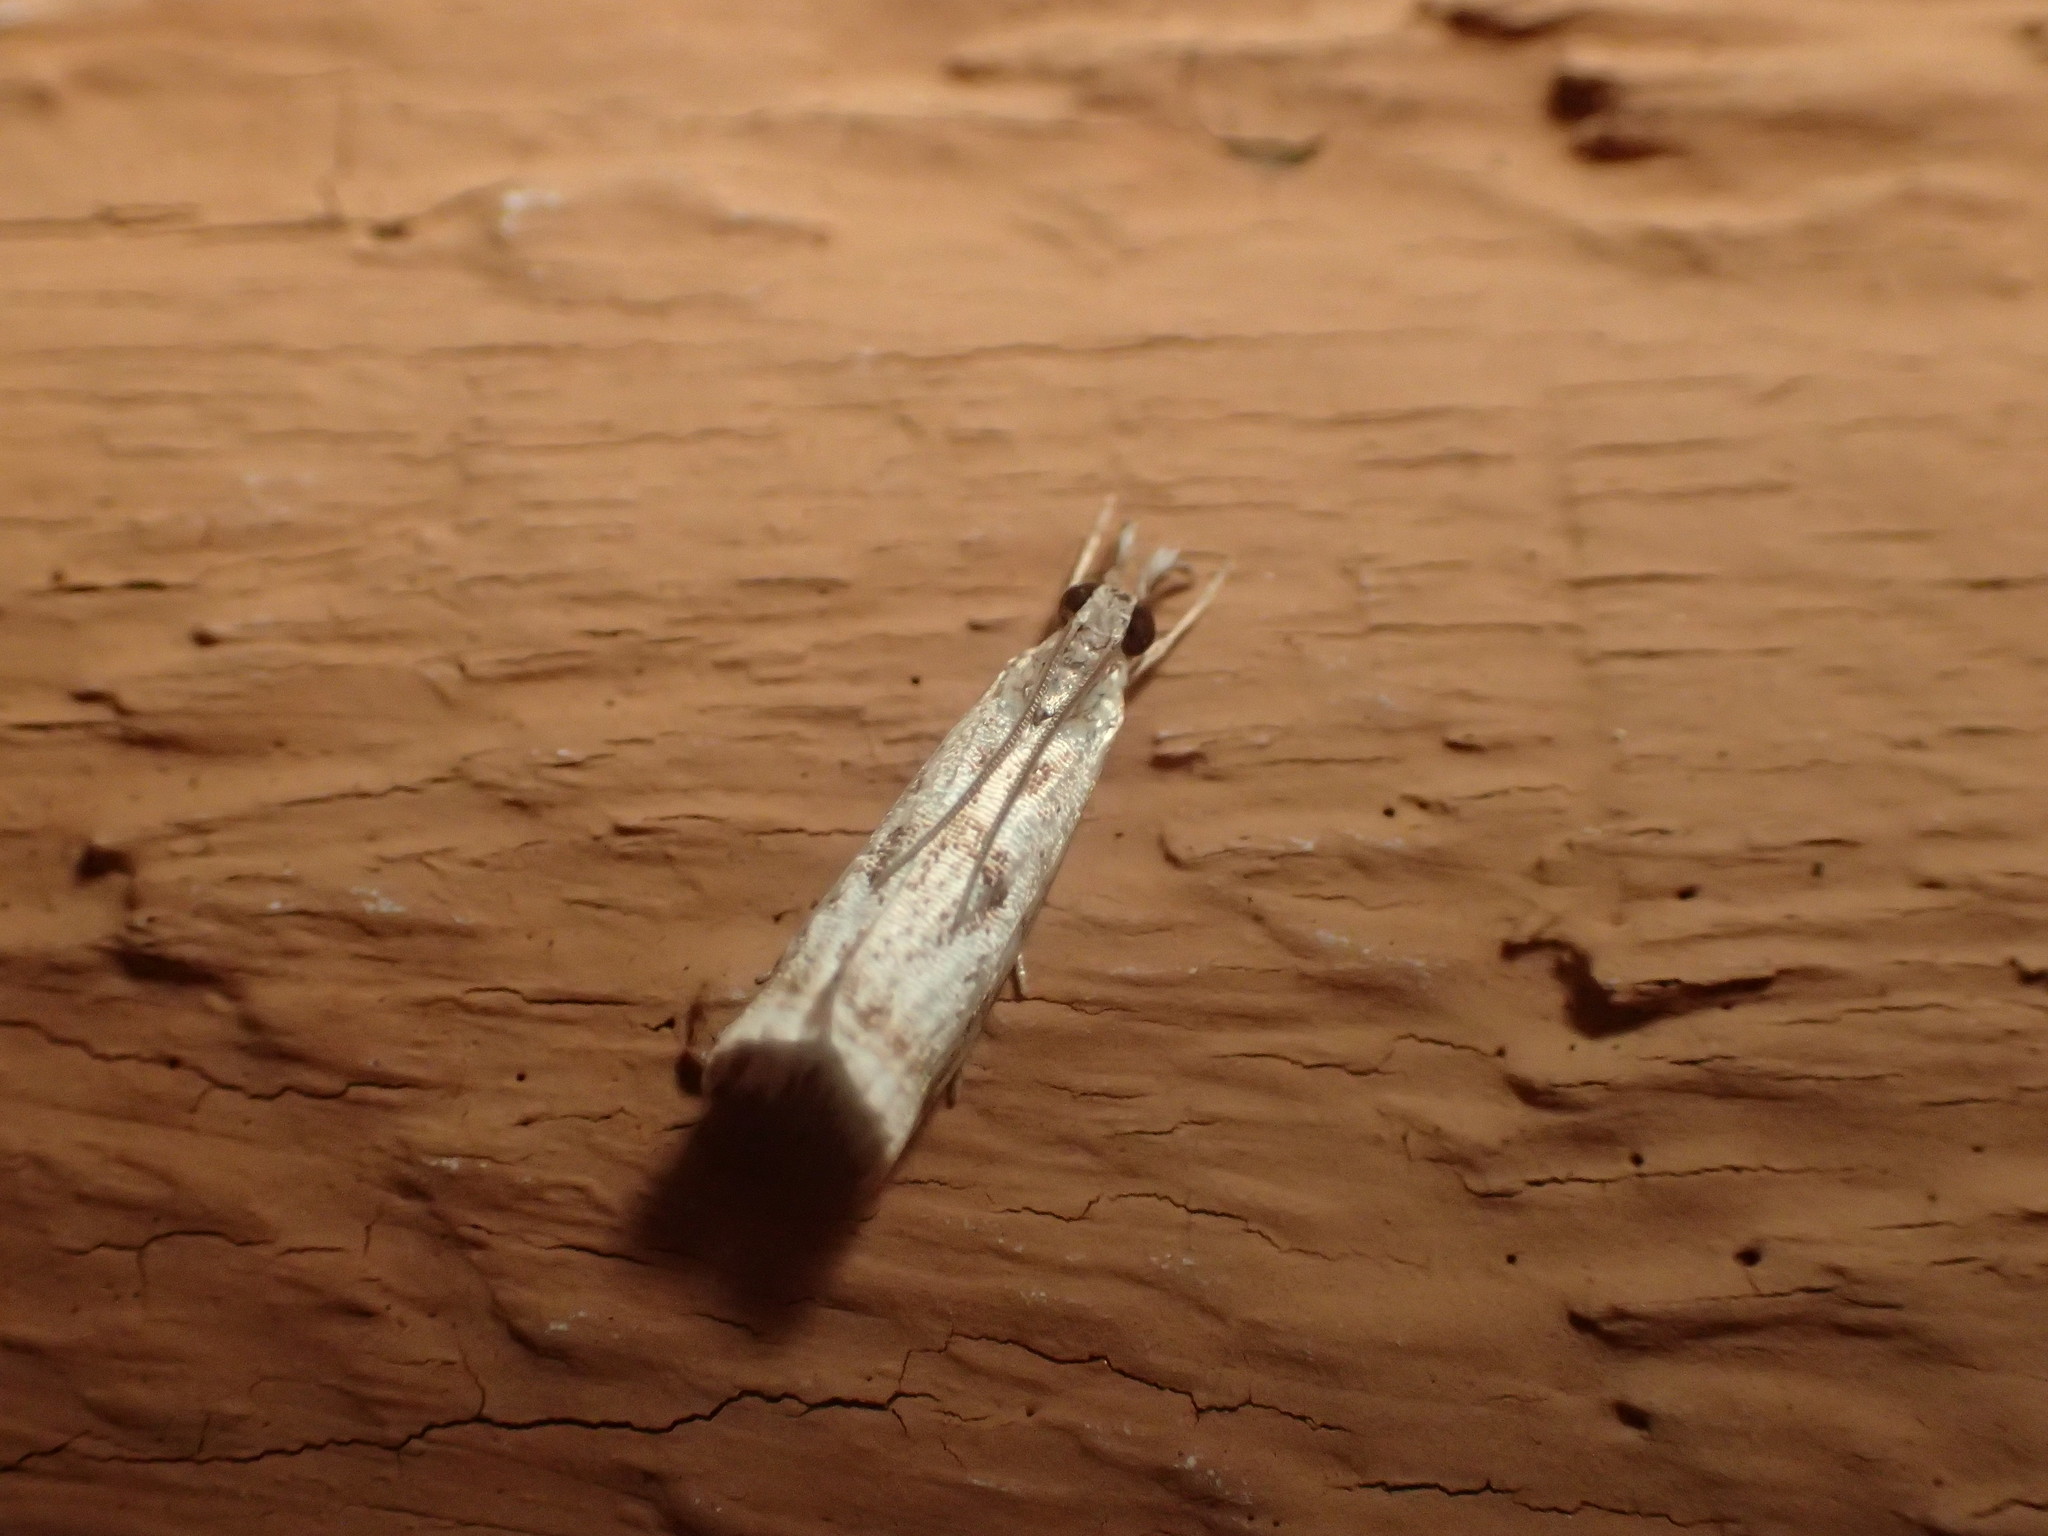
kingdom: Animalia
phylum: Arthropoda
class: Insecta
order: Lepidoptera
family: Crambidae
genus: Microcrambus
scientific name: Microcrambus elegans
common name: Elegant grass-veneer
